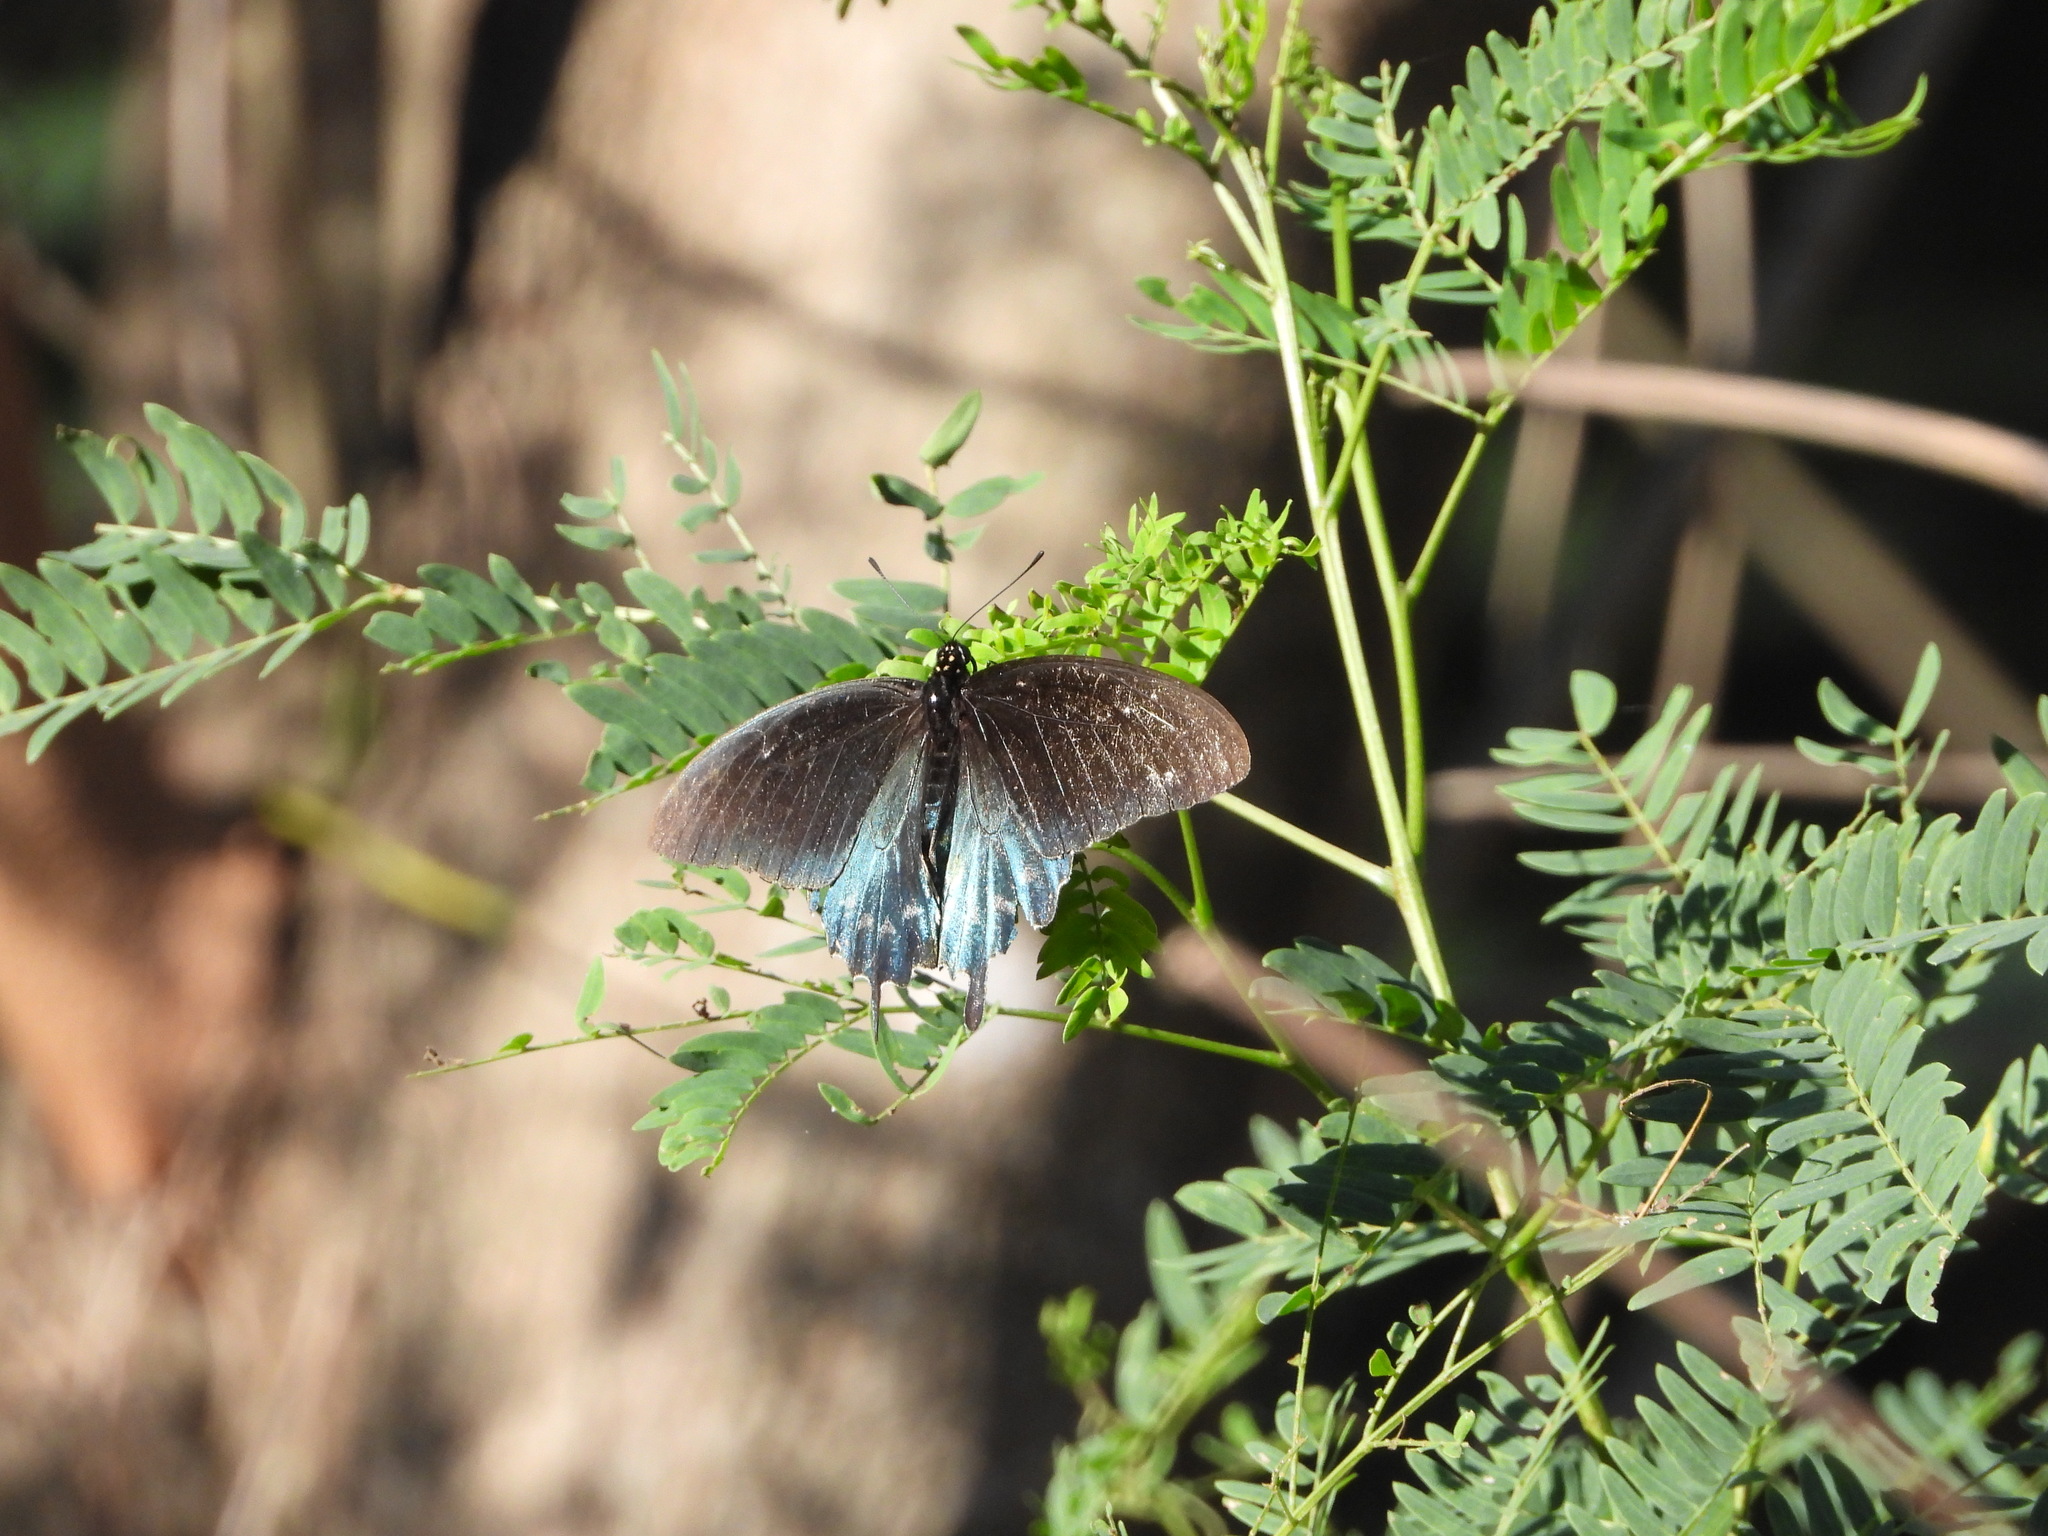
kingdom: Animalia
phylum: Arthropoda
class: Insecta
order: Lepidoptera
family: Papilionidae
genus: Battus
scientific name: Battus philenor
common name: Pipevine swallowtail
